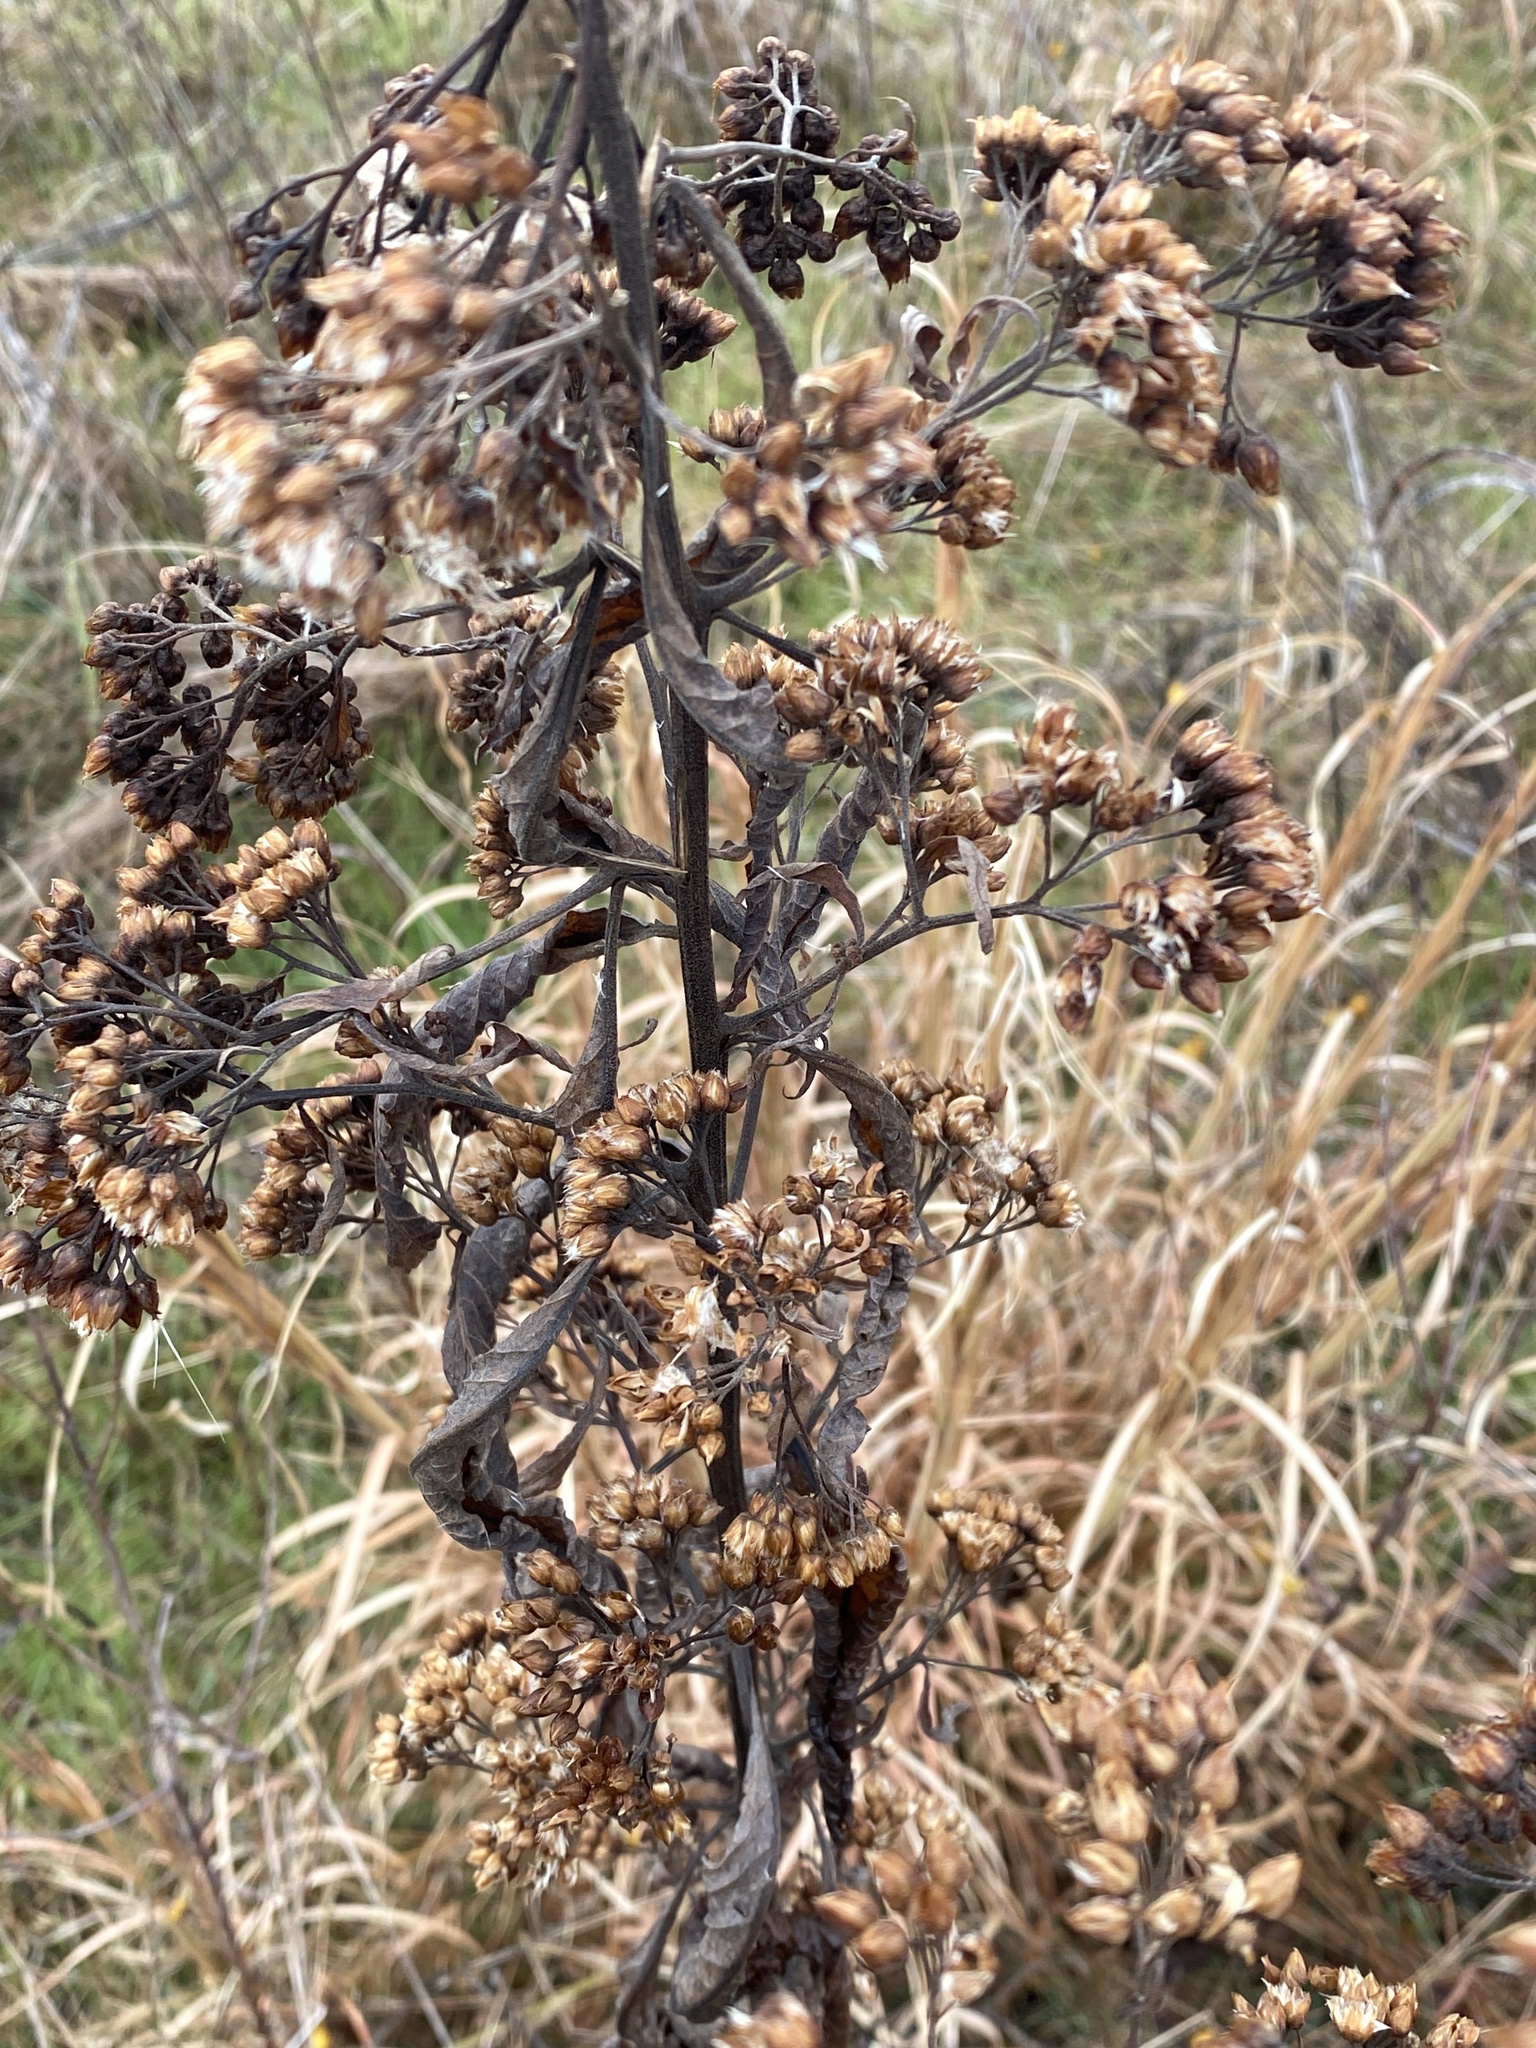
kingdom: Plantae
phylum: Tracheophyta
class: Magnoliopsida
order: Asterales
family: Asteraceae
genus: Pluchea
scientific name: Pluchea camphorata
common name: Camphor pluchea
